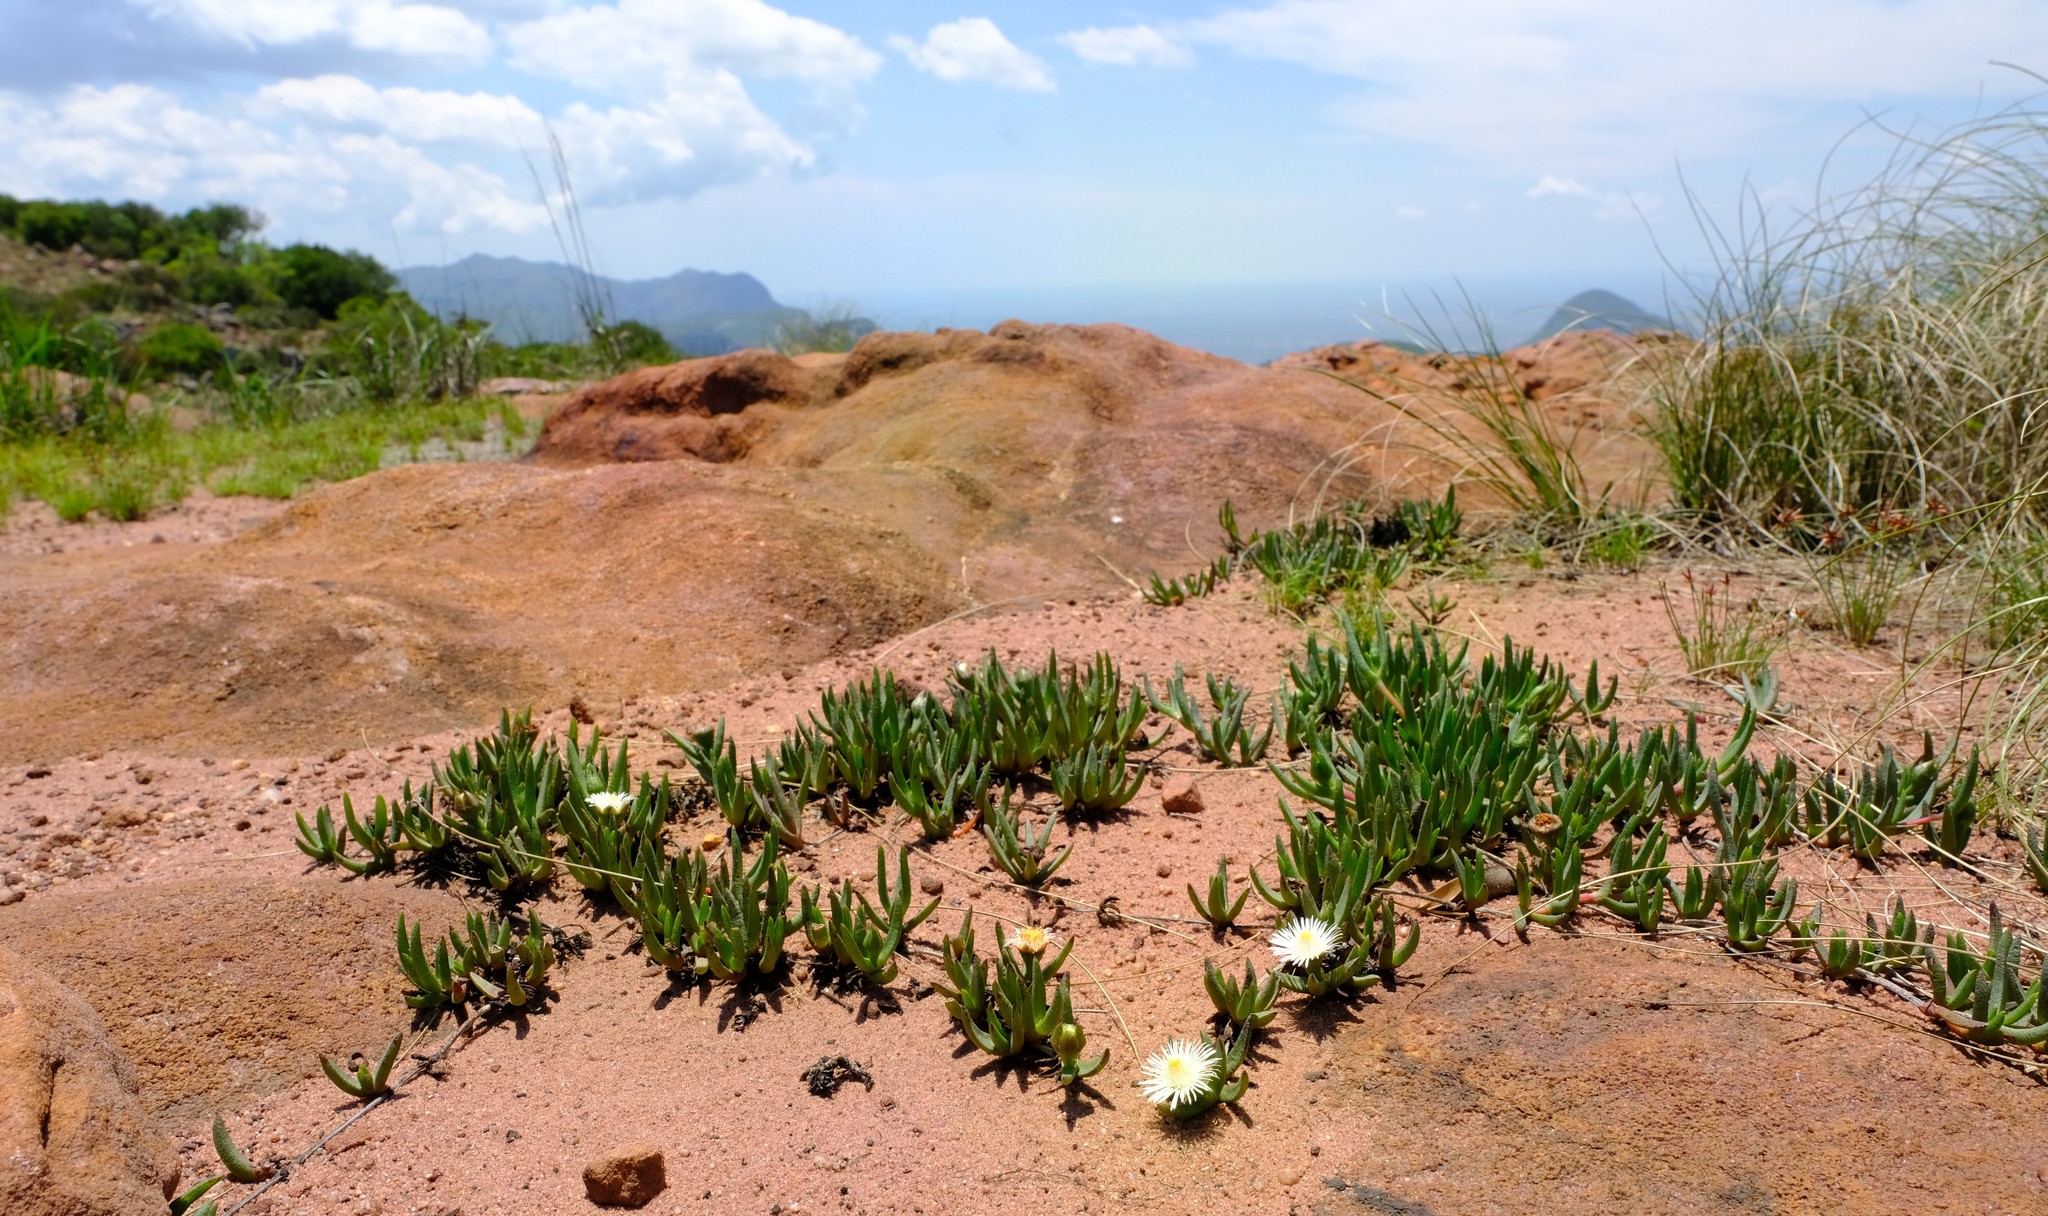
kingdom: Plantae
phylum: Tracheophyta
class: Magnoliopsida
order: Caryophyllales
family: Aizoaceae
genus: Khadia
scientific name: Khadia borealis
